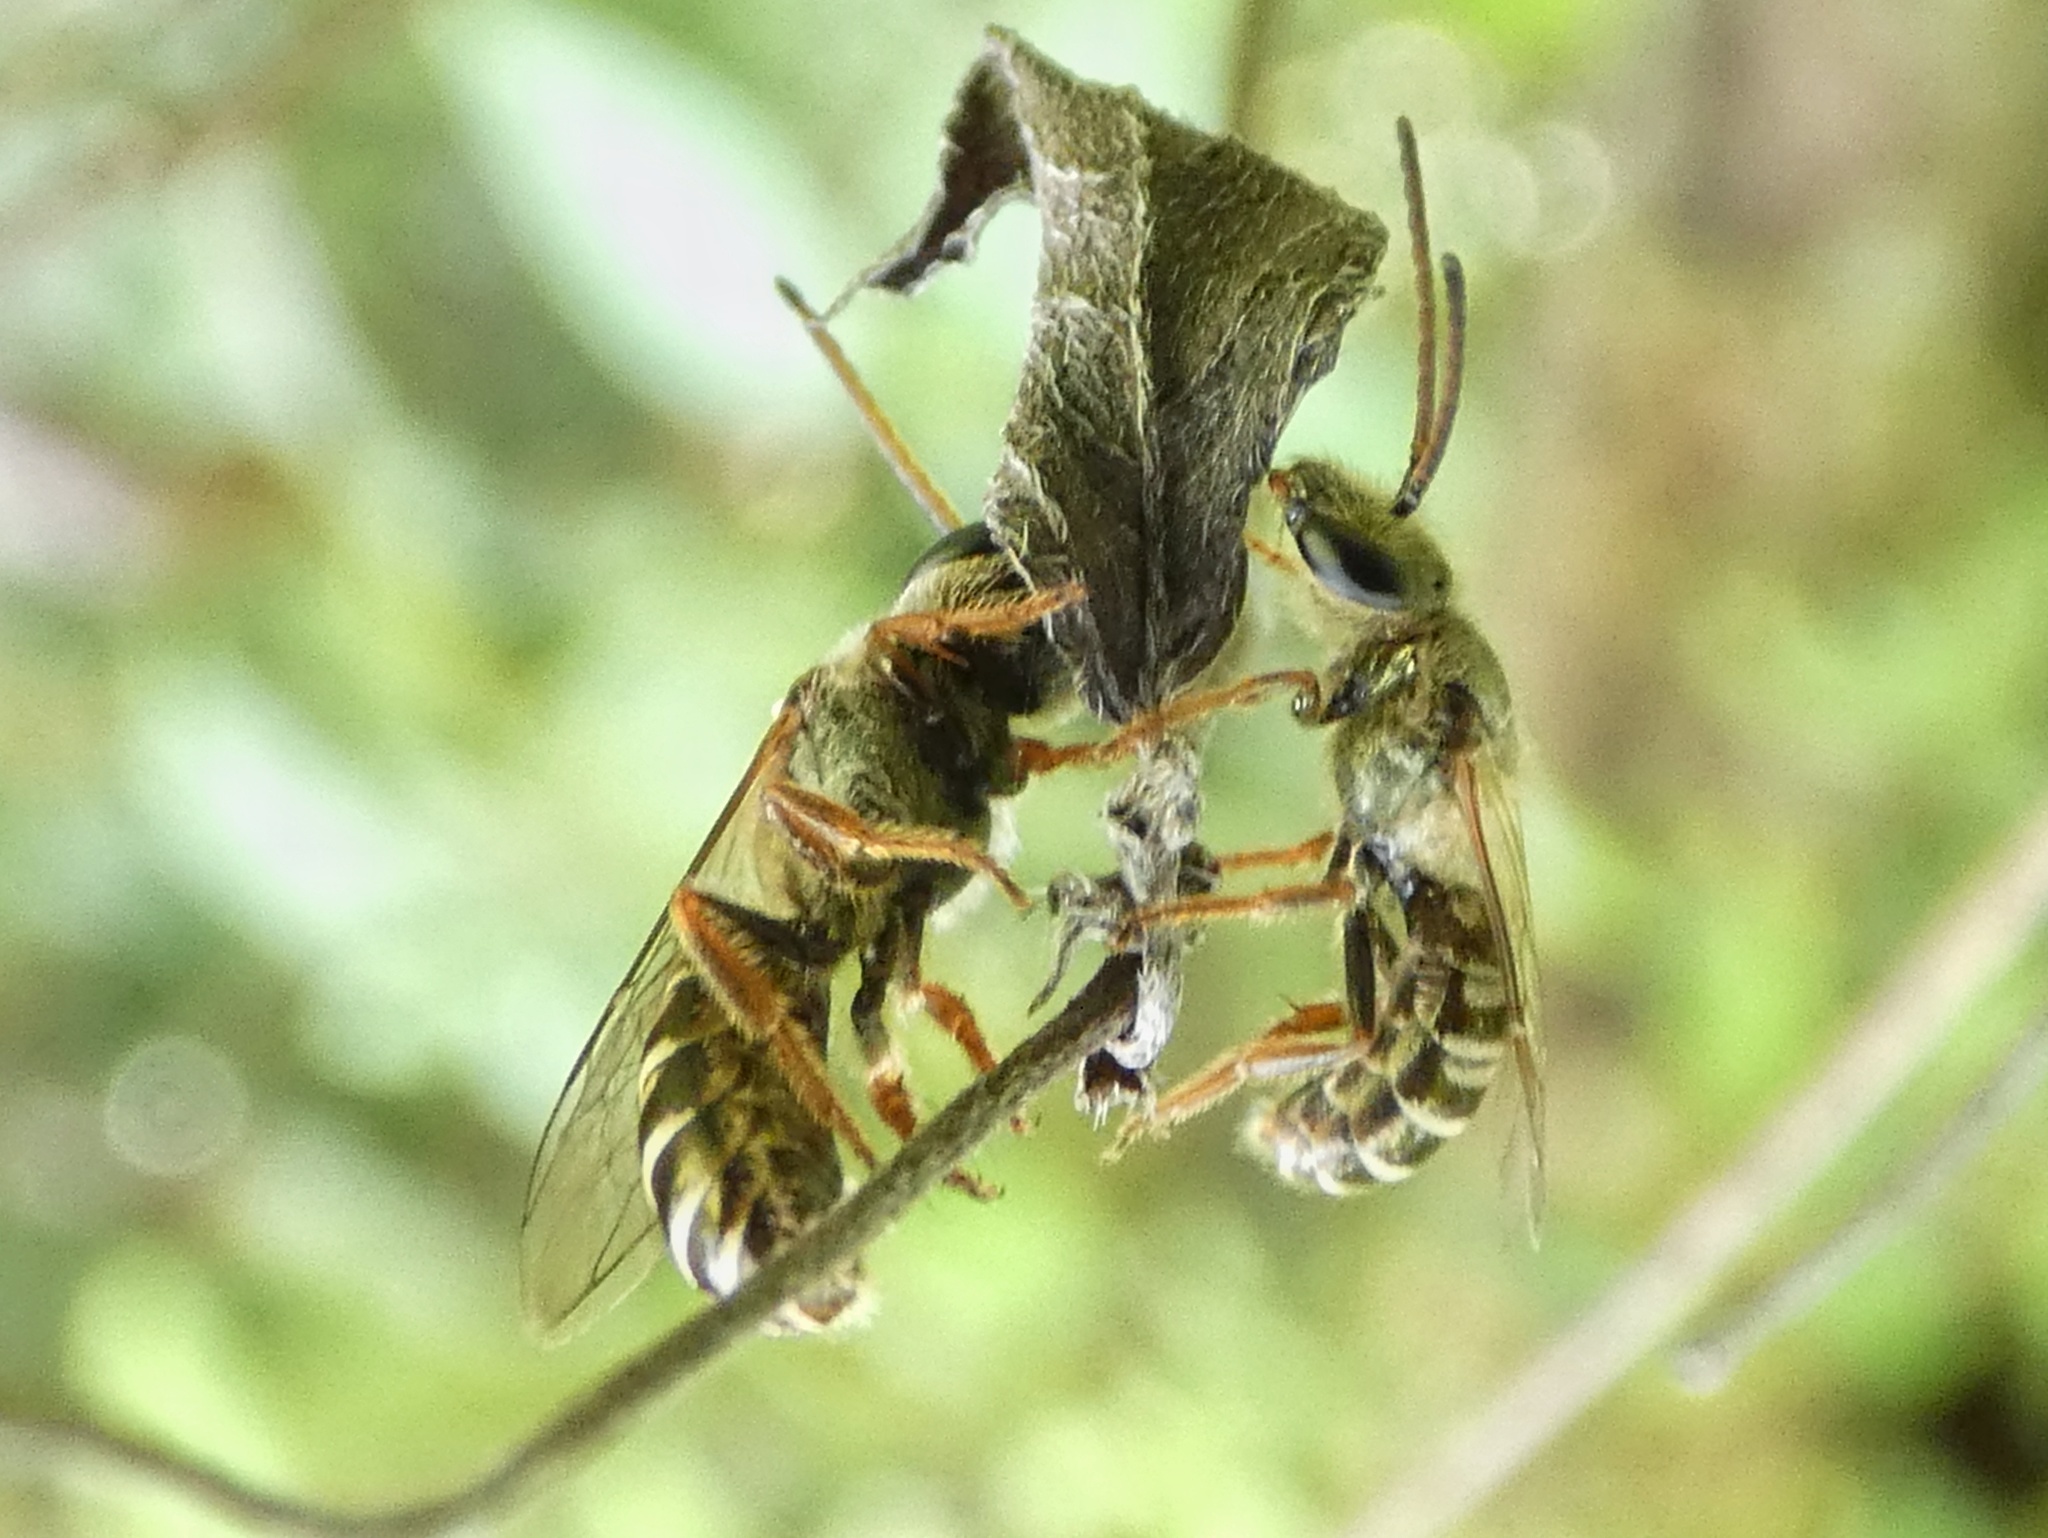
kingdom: Animalia
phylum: Arthropoda
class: Insecta
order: Hymenoptera
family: Halictidae
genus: Halictus
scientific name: Halictus hesperus
